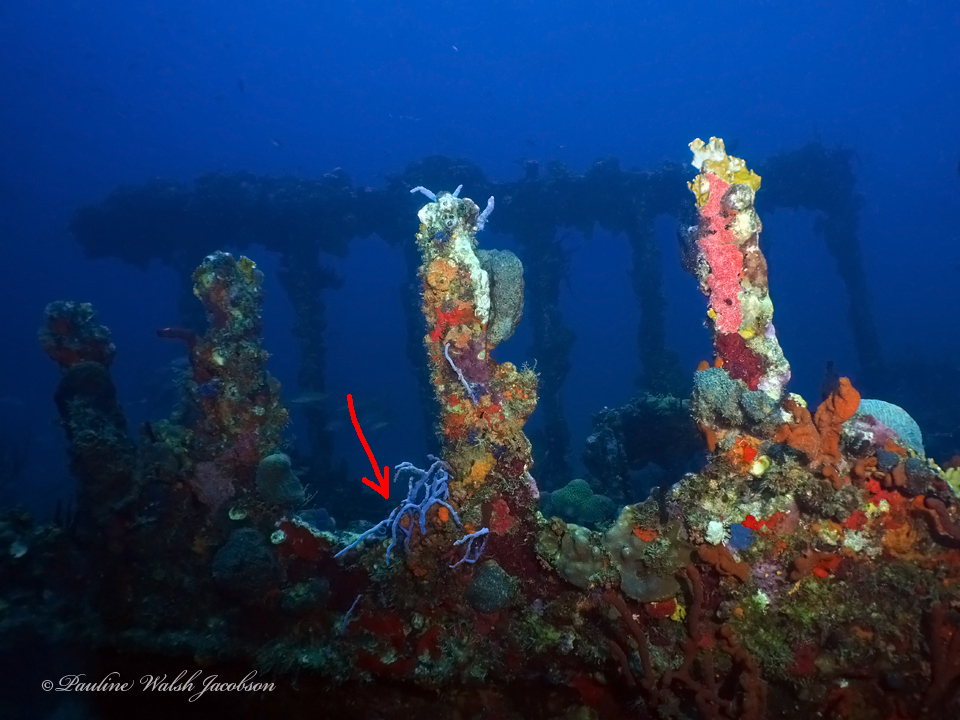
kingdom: Animalia
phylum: Porifera
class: Demospongiae
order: Verongiida
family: Aplysinidae
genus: Aplysina
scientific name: Aplysina cauliformis
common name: Branching candle sponge
